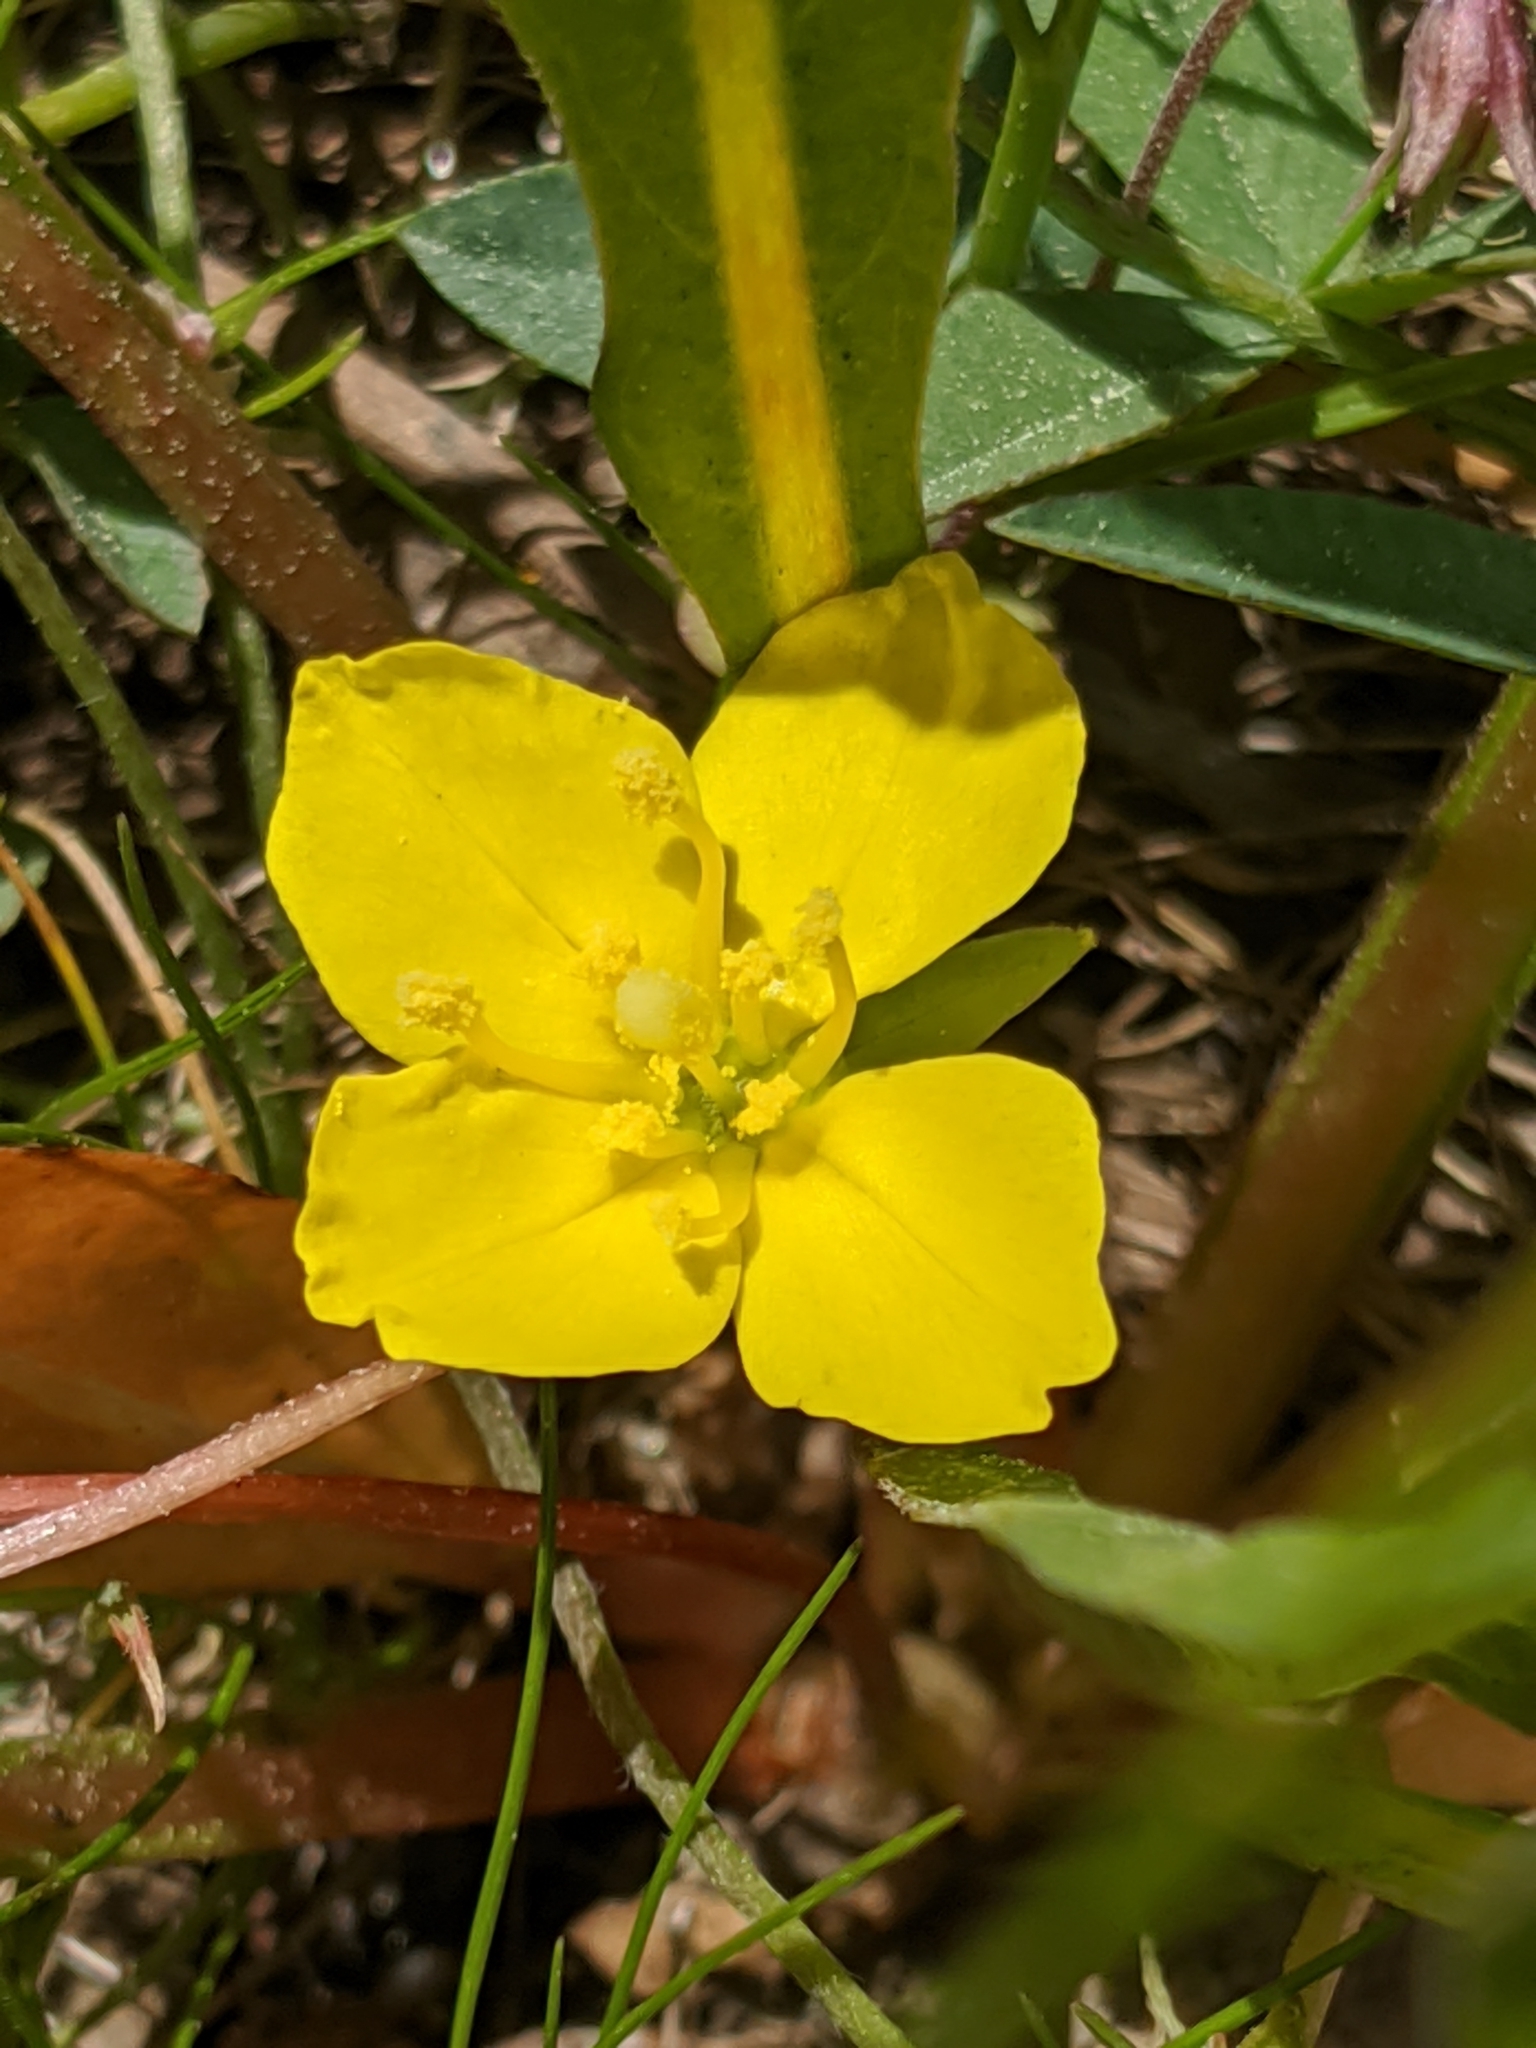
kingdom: Plantae
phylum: Tracheophyta
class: Magnoliopsida
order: Myrtales
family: Onagraceae
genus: Taraxia
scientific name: Taraxia subacaulis
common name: Diffuseflower evening primrose
